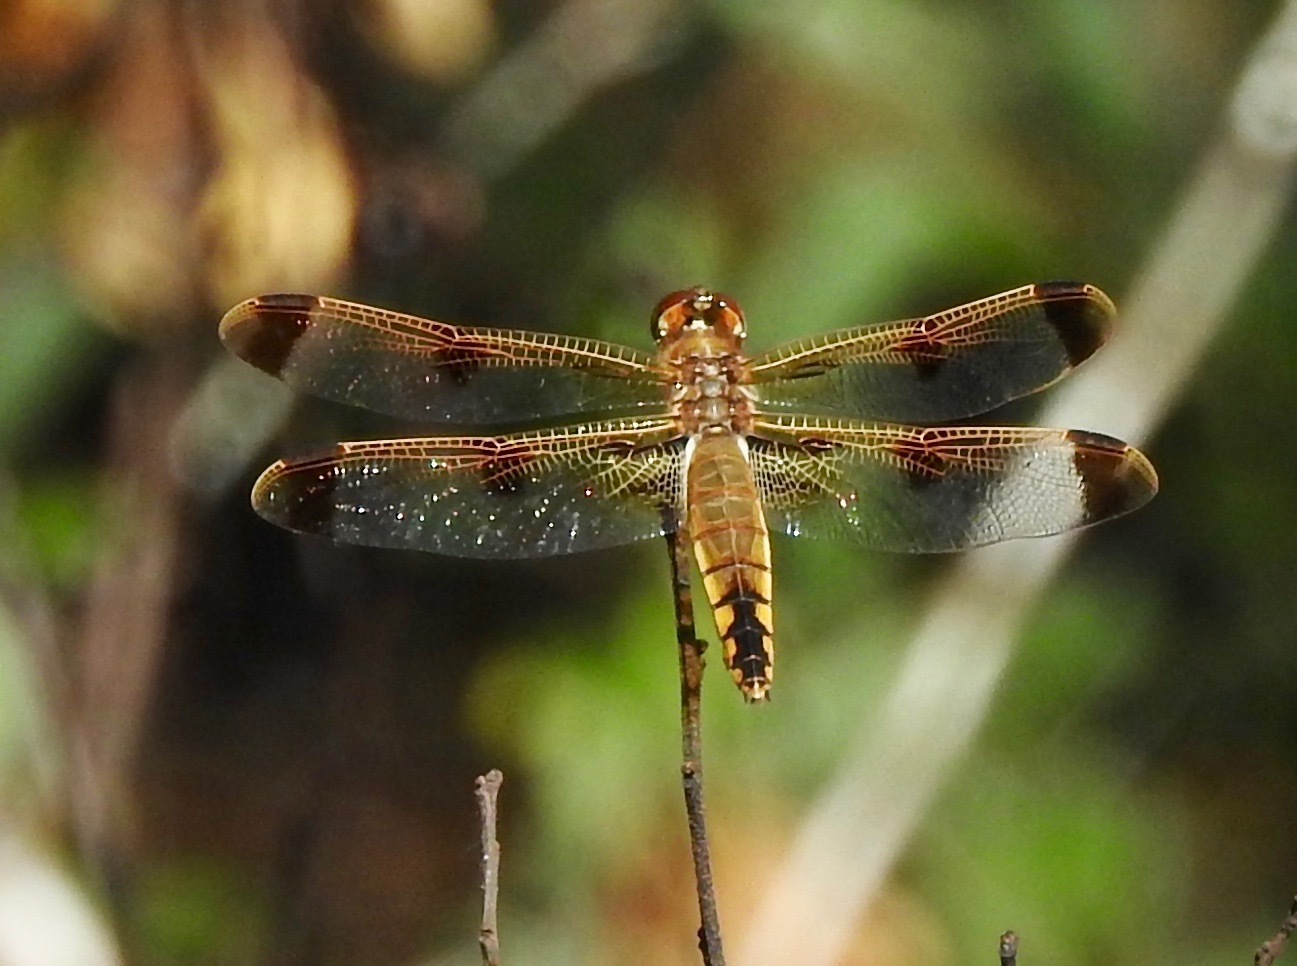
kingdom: Animalia
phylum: Arthropoda
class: Insecta
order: Odonata
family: Libellulidae
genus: Libellula
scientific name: Libellula semifasciata
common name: Painted skimmer
